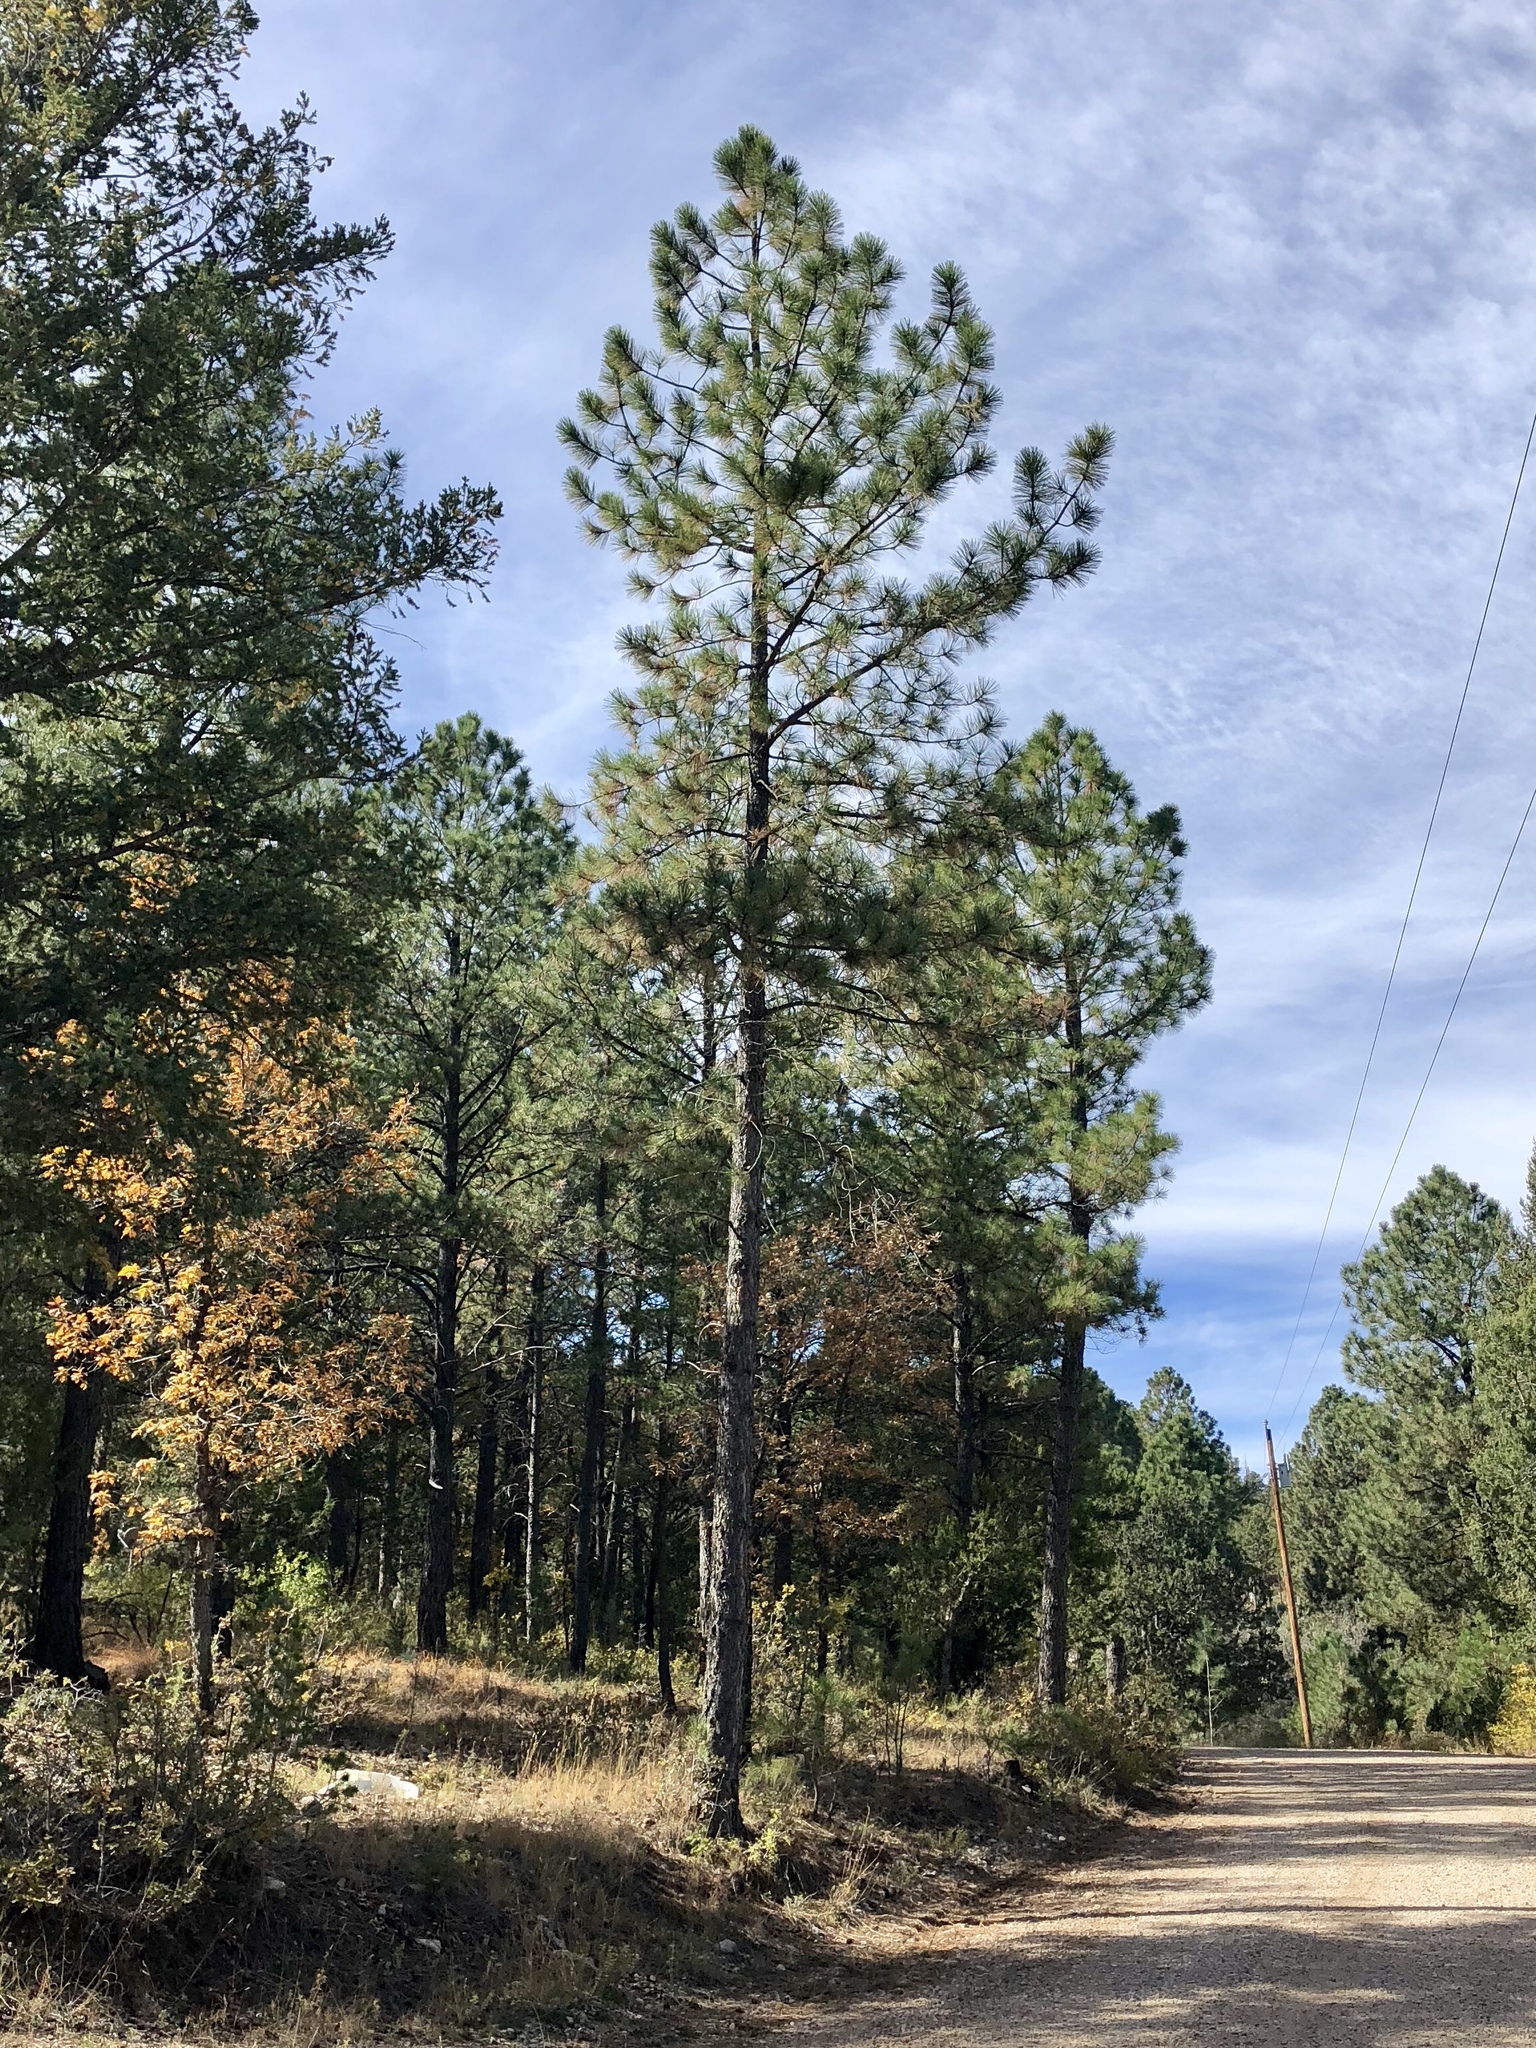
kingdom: Plantae
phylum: Tracheophyta
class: Pinopsida
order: Pinales
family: Pinaceae
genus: Pinus
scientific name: Pinus ponderosa
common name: Western yellow-pine
